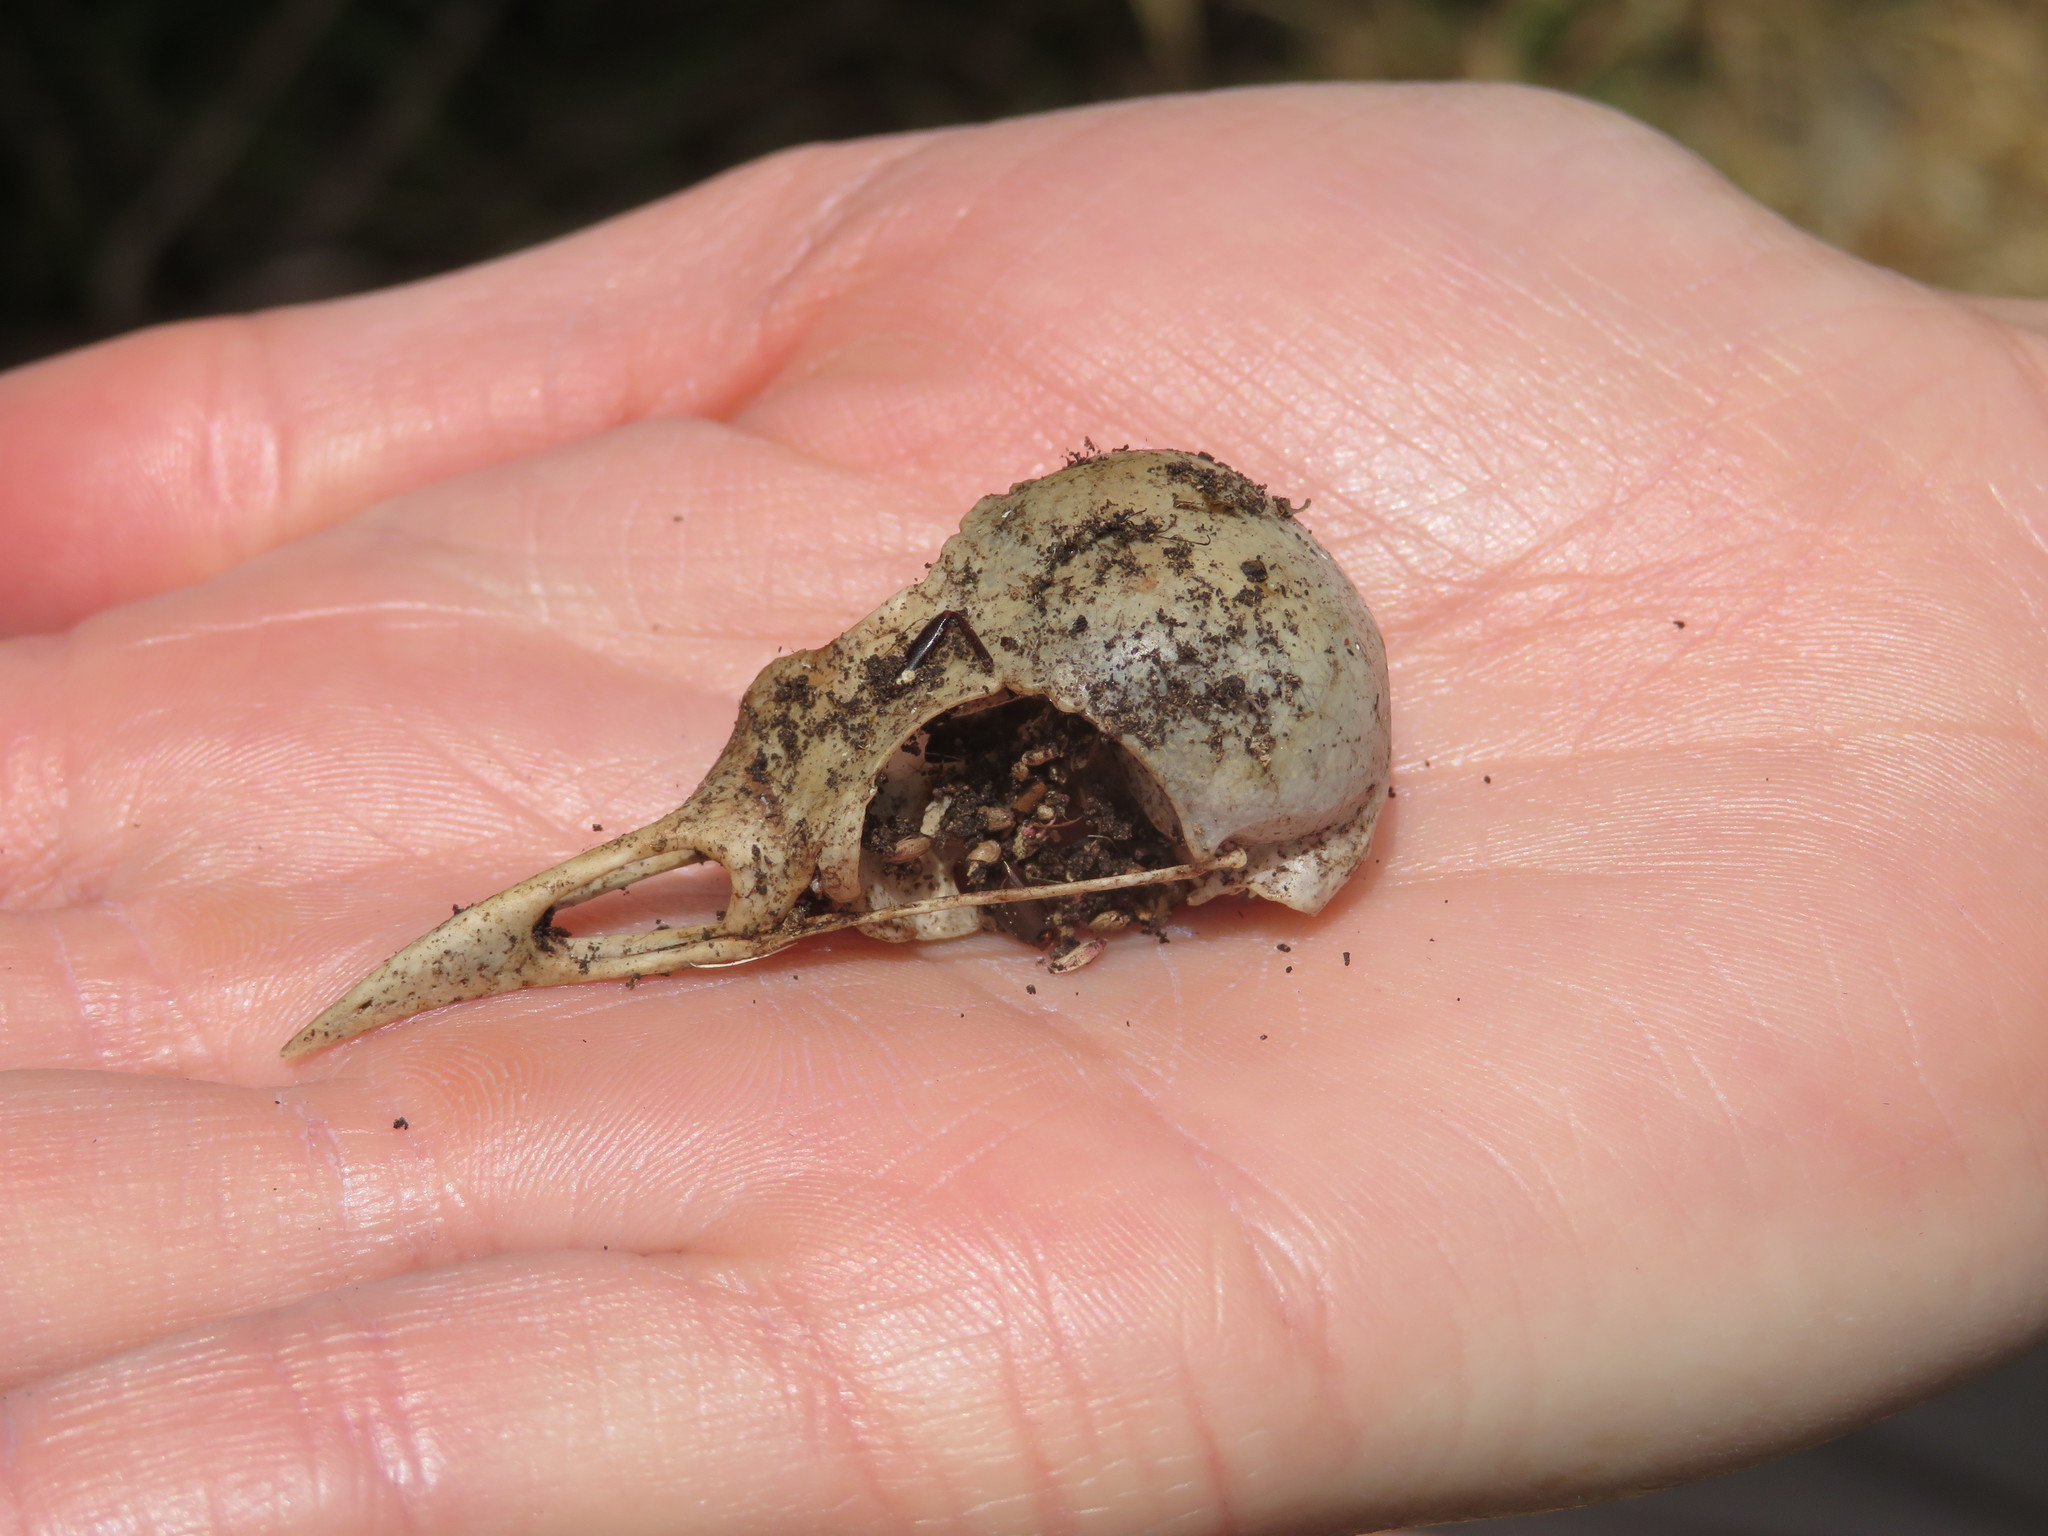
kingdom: Animalia
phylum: Chordata
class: Aves
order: Passeriformes
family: Turdidae
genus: Turdus
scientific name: Turdus merula
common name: Common blackbird
